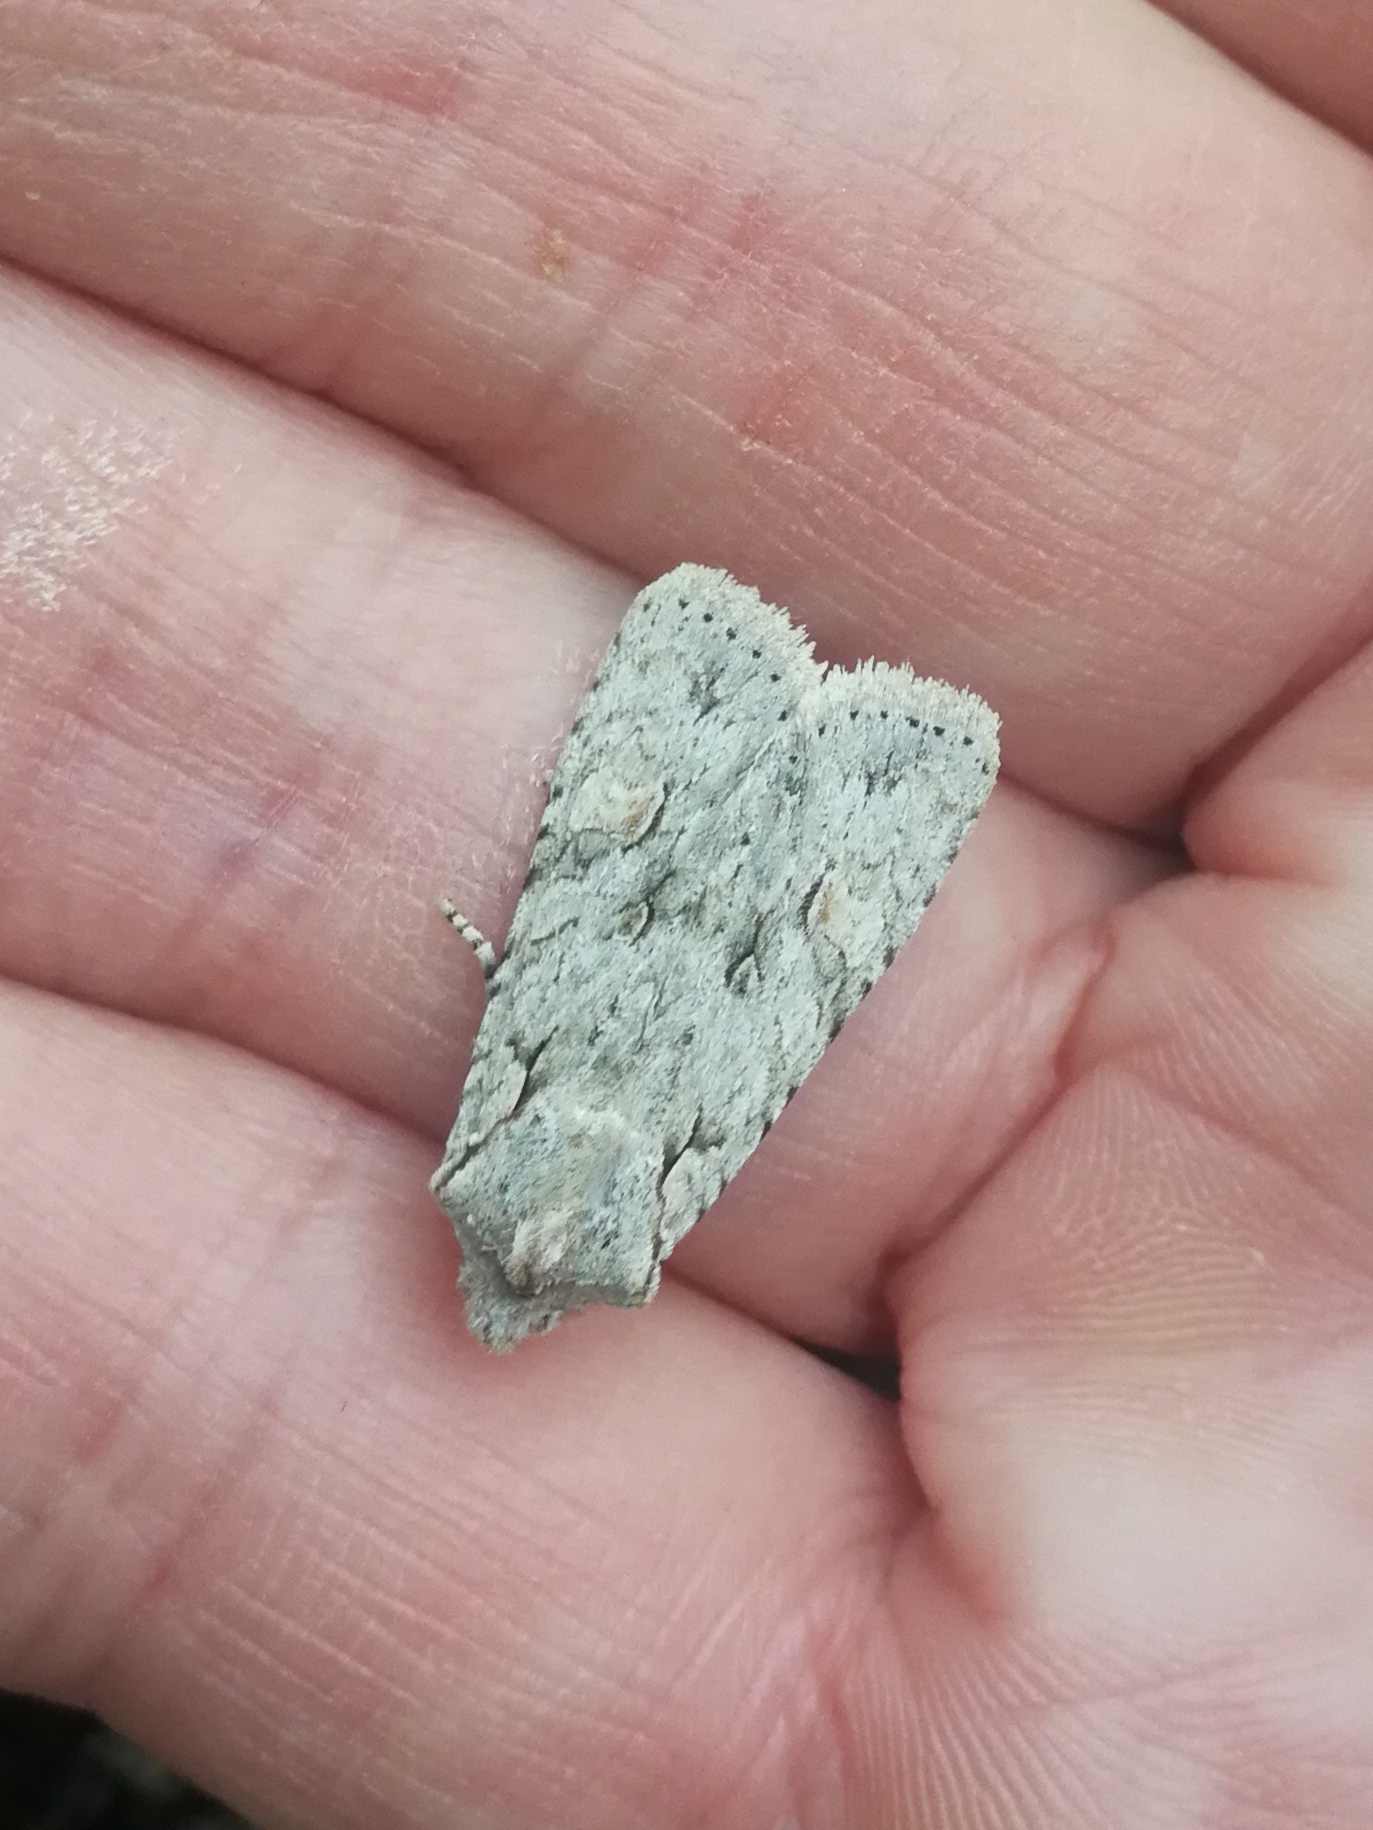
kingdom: Animalia
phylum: Arthropoda
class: Insecta
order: Lepidoptera
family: Noctuidae
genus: Lithophane
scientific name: Lithophane ornitopus
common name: Grey shoulder-knot
